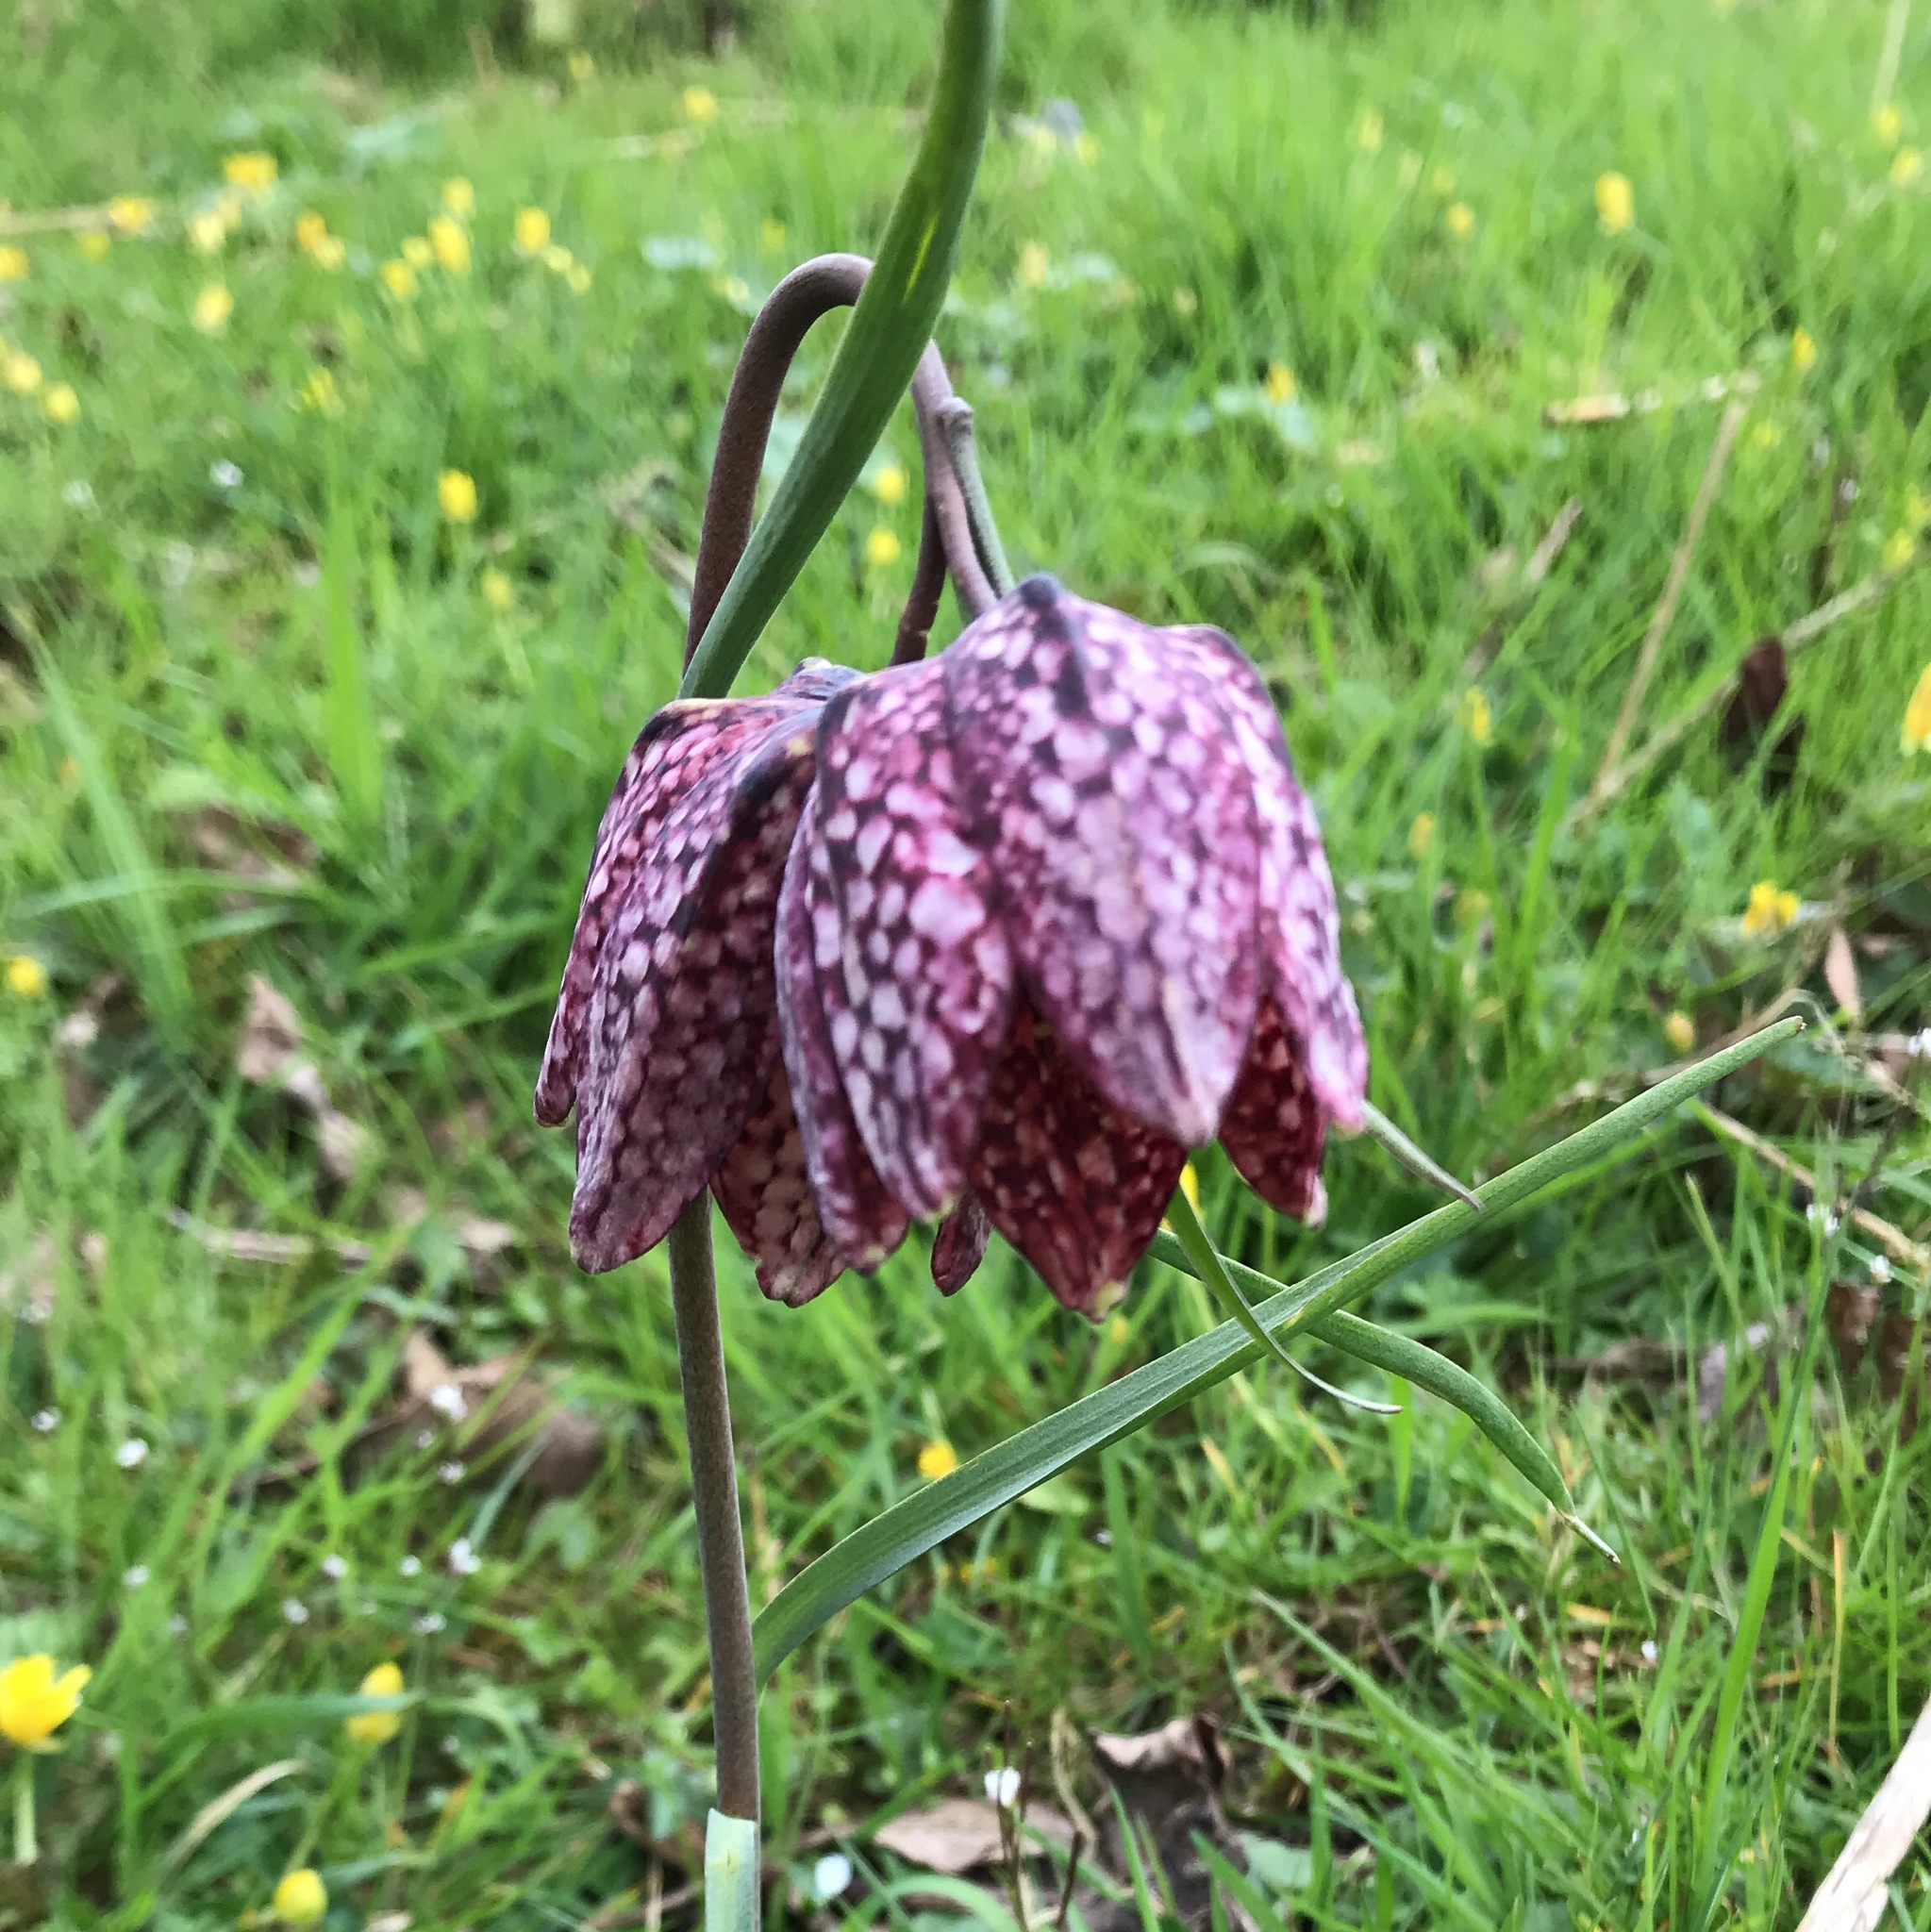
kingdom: Plantae
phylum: Tracheophyta
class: Liliopsida
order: Liliales
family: Liliaceae
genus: Fritillaria
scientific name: Fritillaria meleagris
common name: Fritillary
